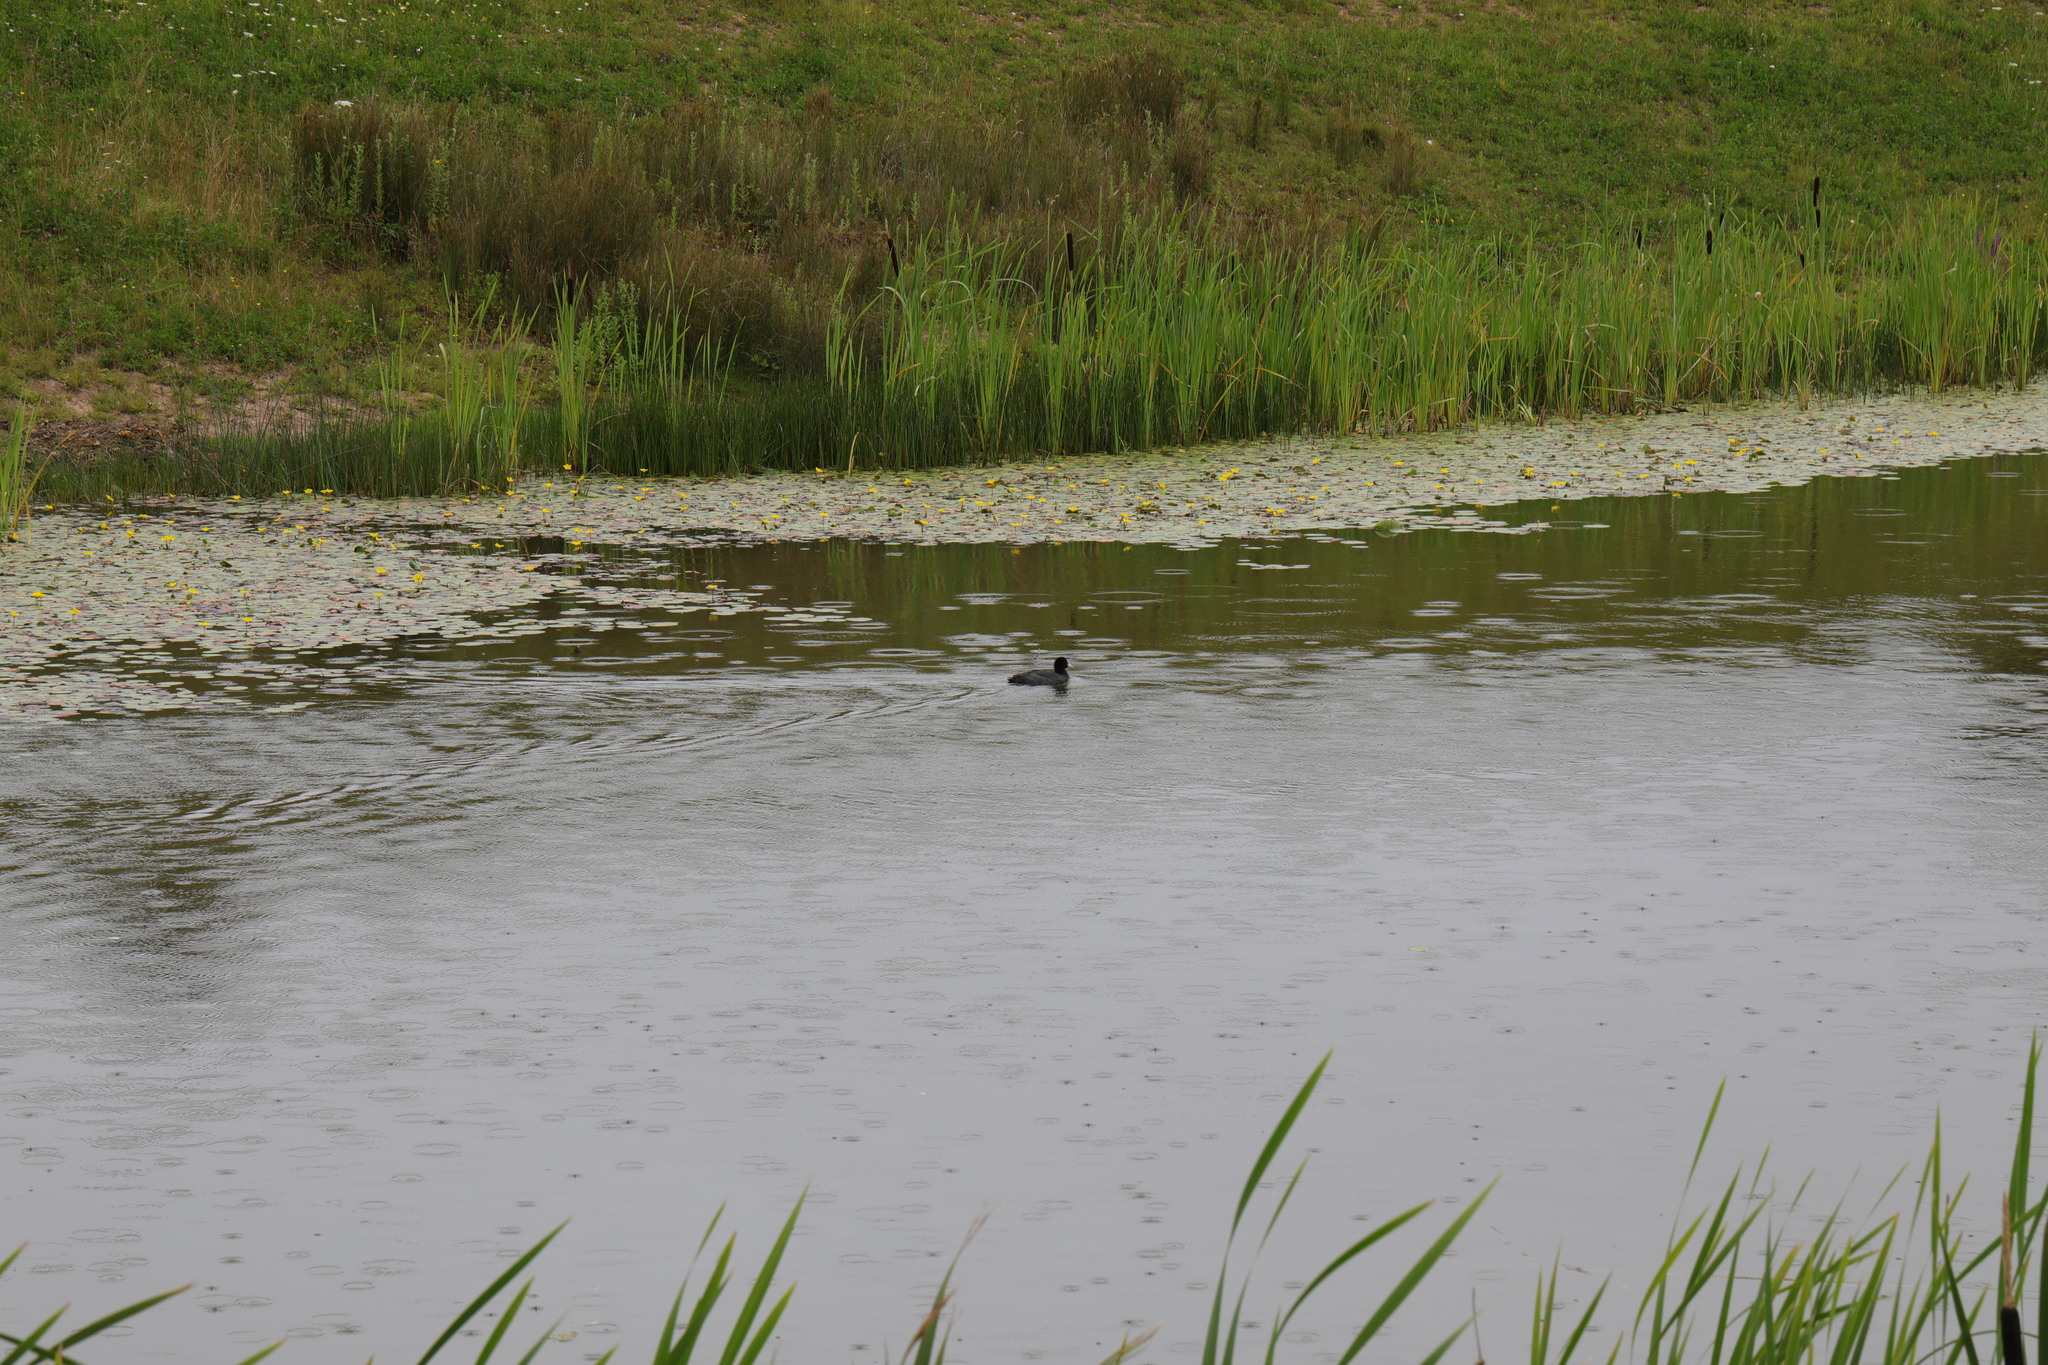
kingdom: Animalia
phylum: Chordata
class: Aves
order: Gruiformes
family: Rallidae
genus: Fulica
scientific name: Fulica atra
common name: Eurasian coot
